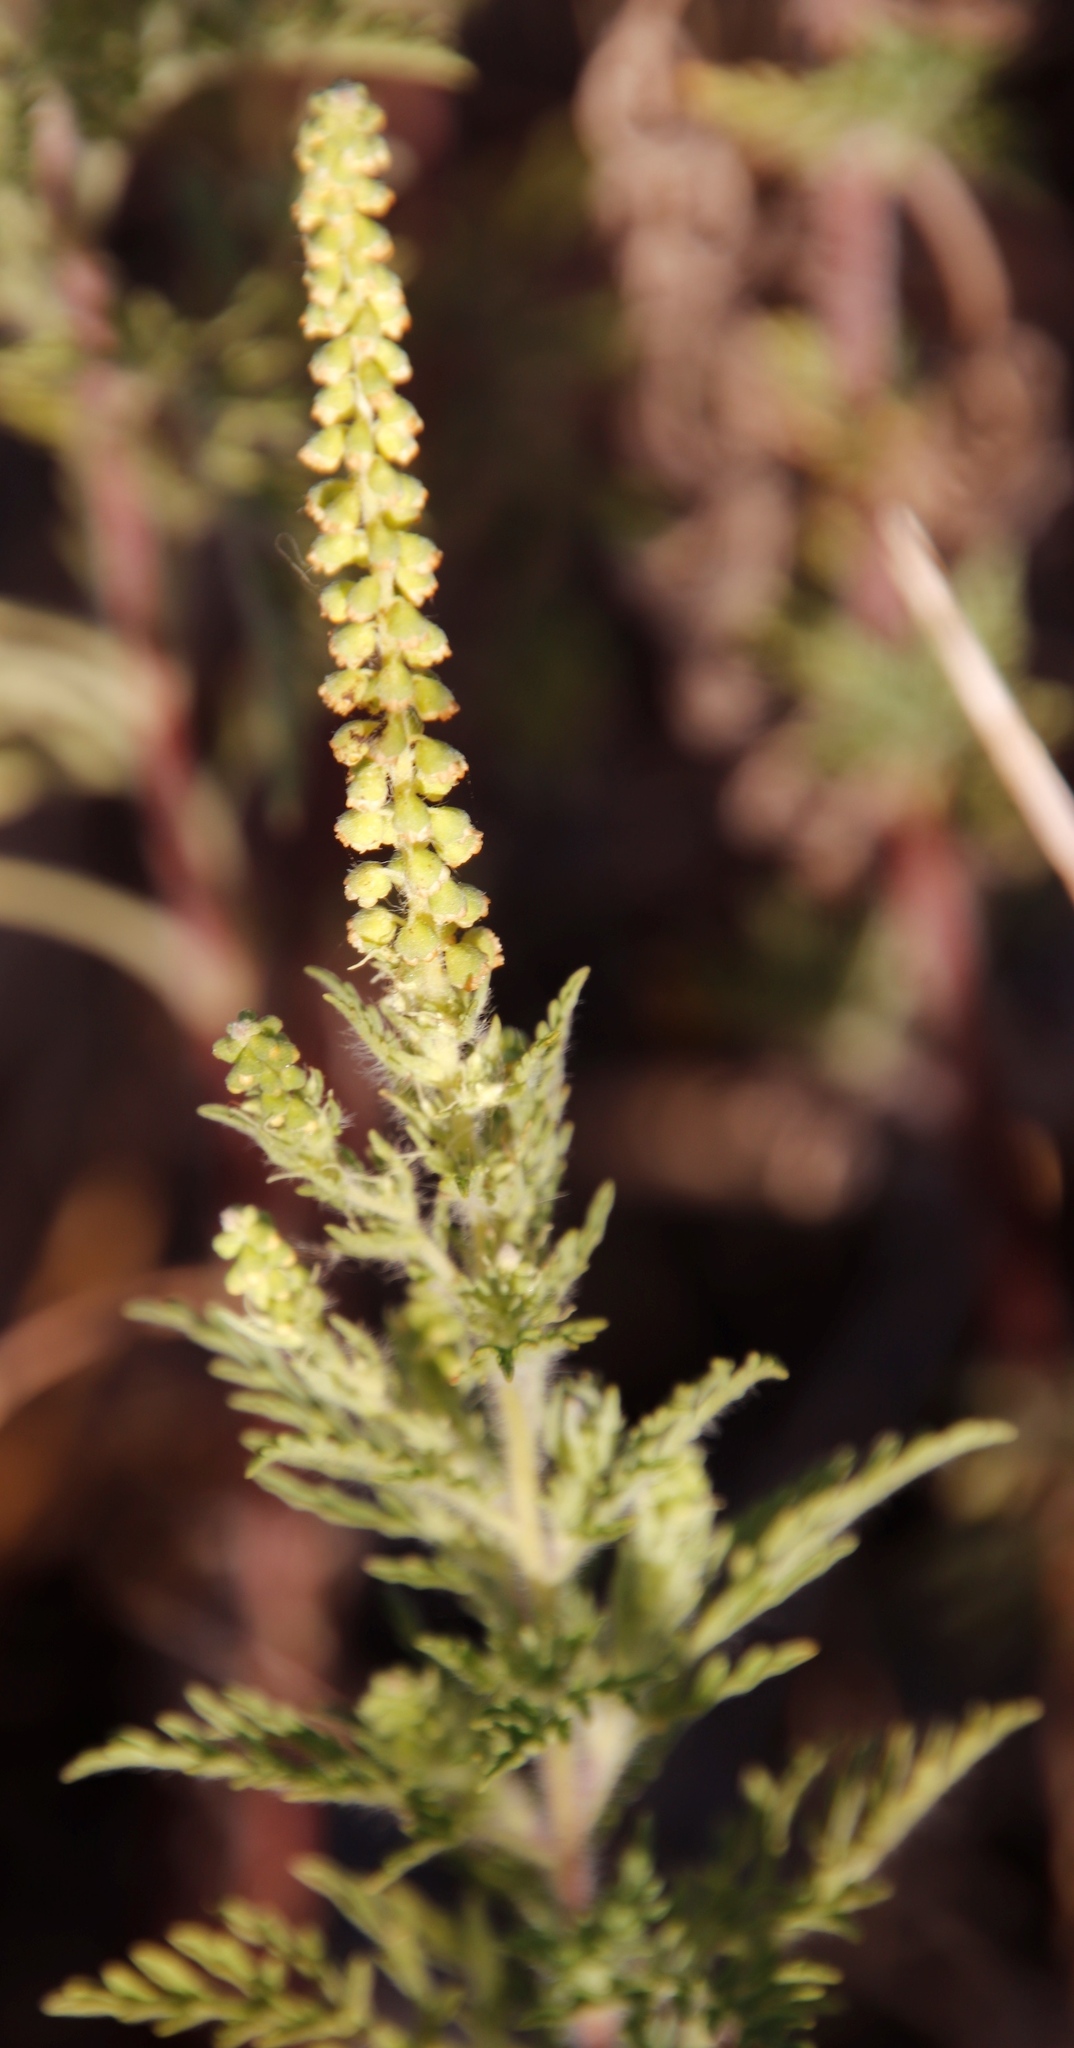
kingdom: Plantae
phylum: Tracheophyta
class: Magnoliopsida
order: Asterales
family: Asteraceae
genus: Ambrosia
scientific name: Ambrosia tenuifolia
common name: Lacy ambrosia
